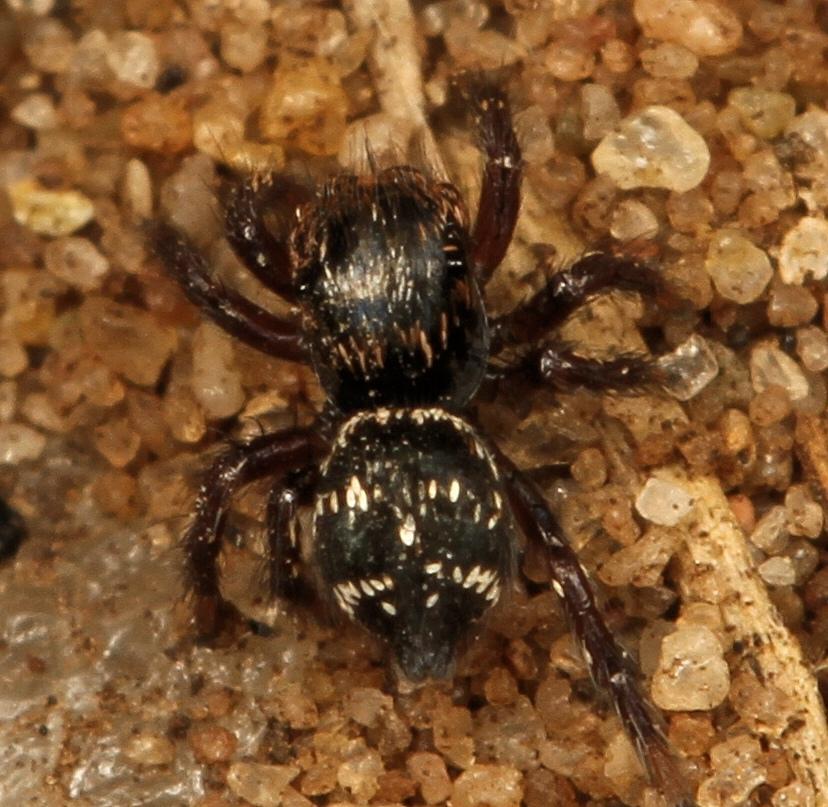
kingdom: Animalia
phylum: Arthropoda
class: Arachnida
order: Araneae
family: Salticidae
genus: Baryphas
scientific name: Baryphas ahenus
